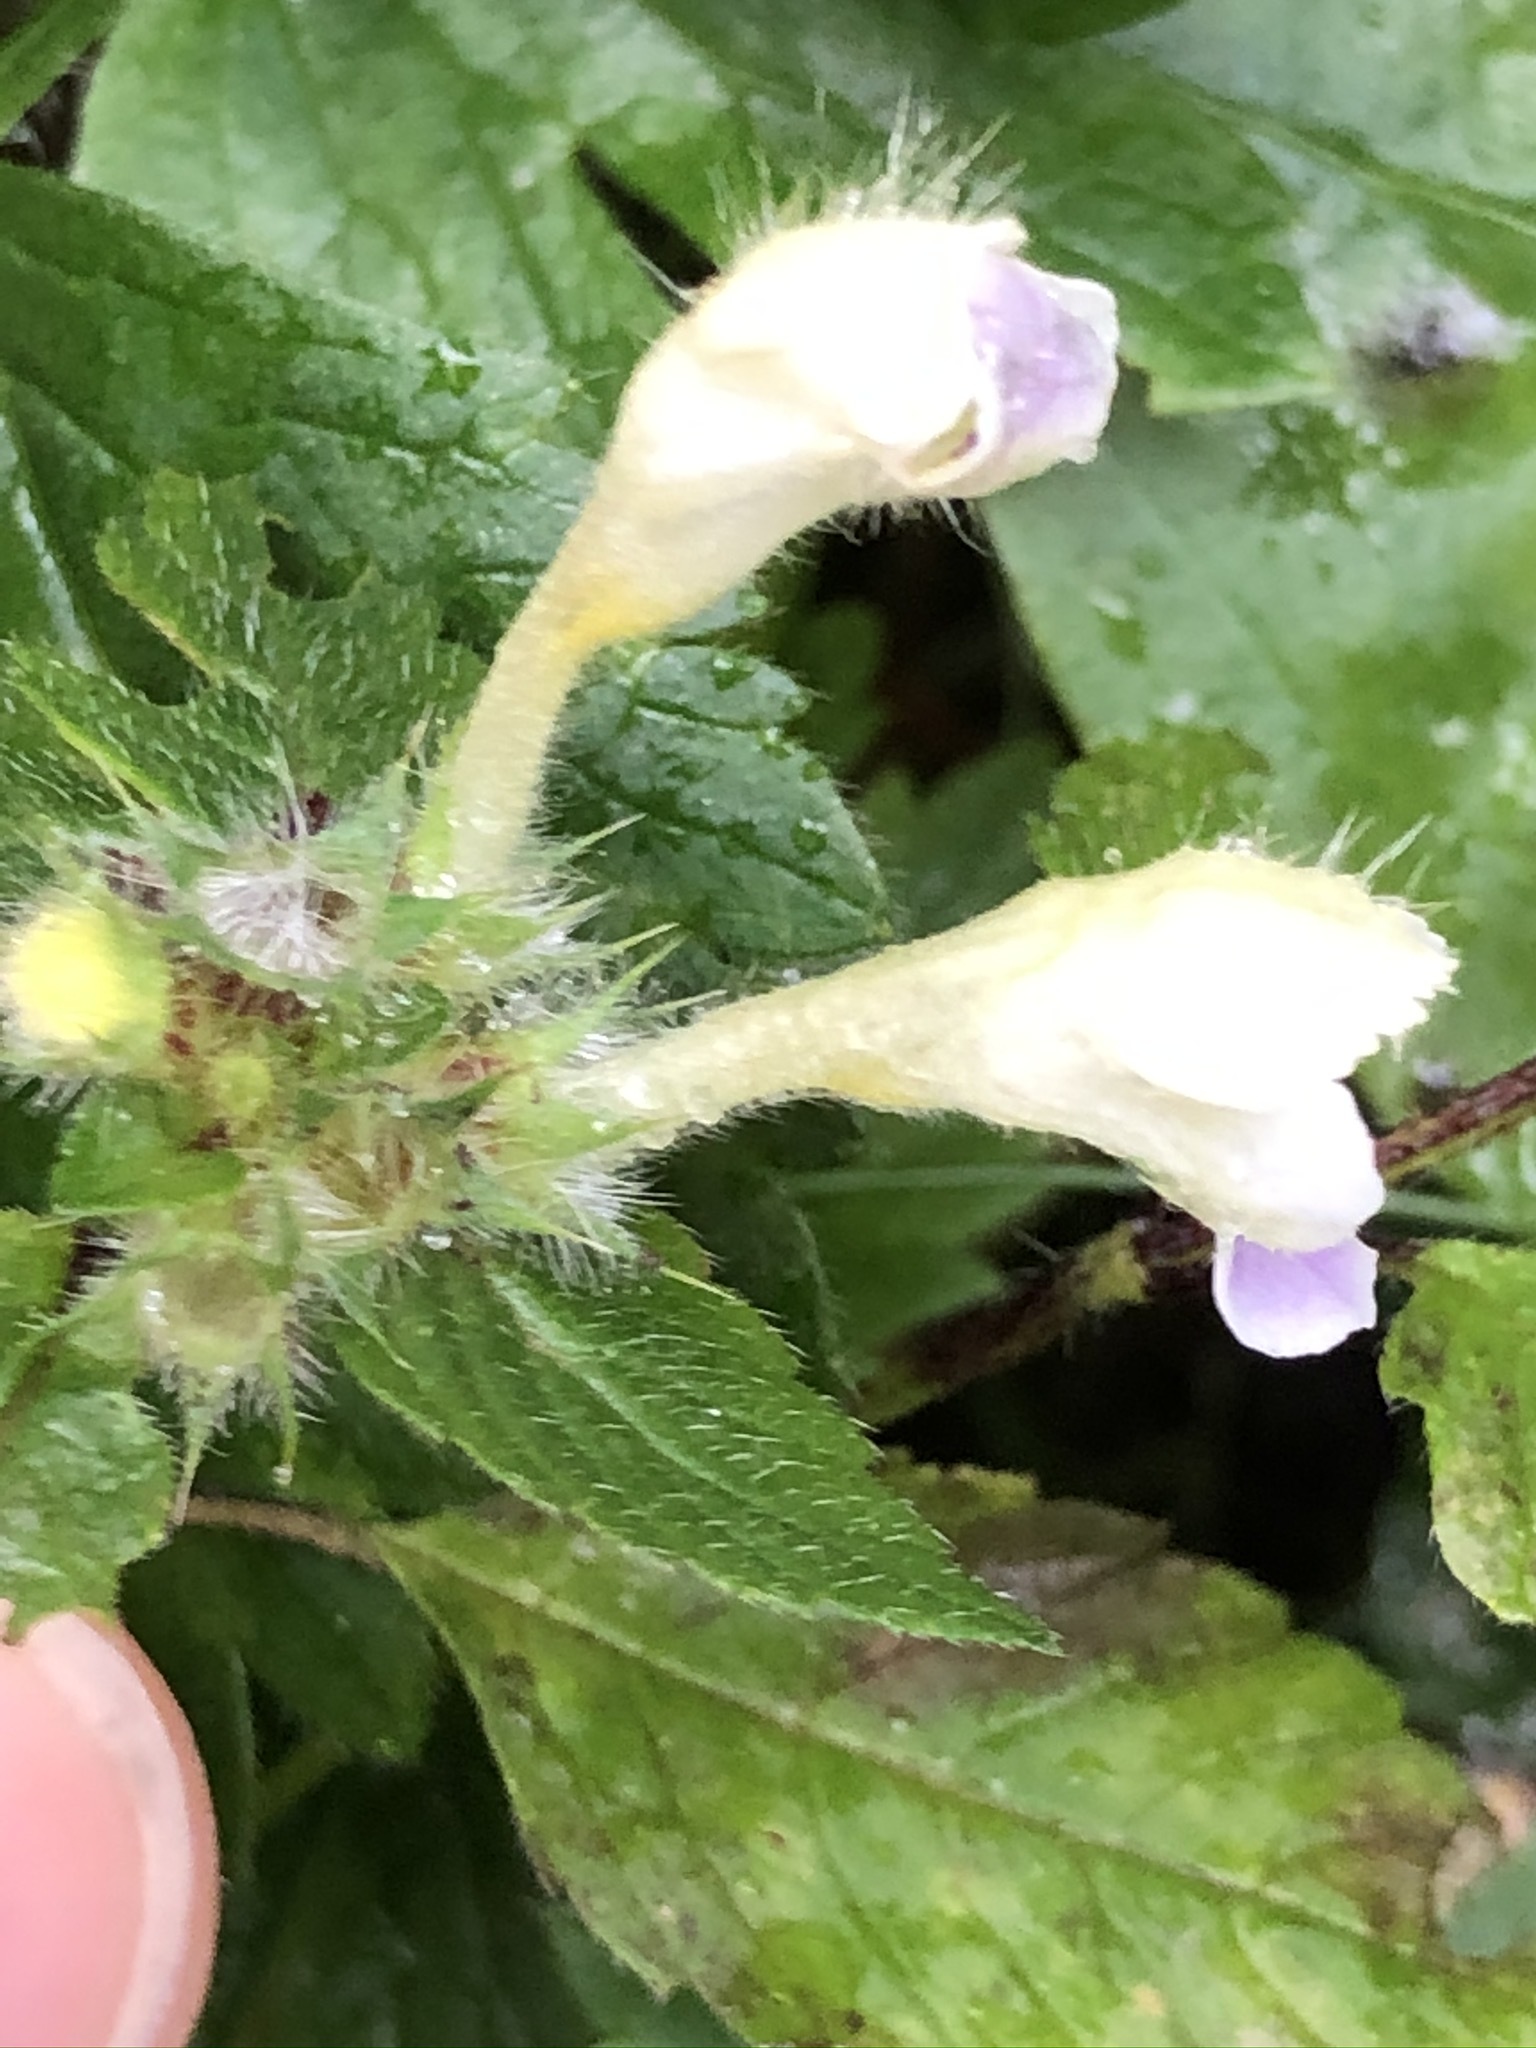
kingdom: Plantae
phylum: Tracheophyta
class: Magnoliopsida
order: Lamiales
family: Lamiaceae
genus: Galeopsis
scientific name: Galeopsis speciosa
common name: Large-flowered hemp-nettle
